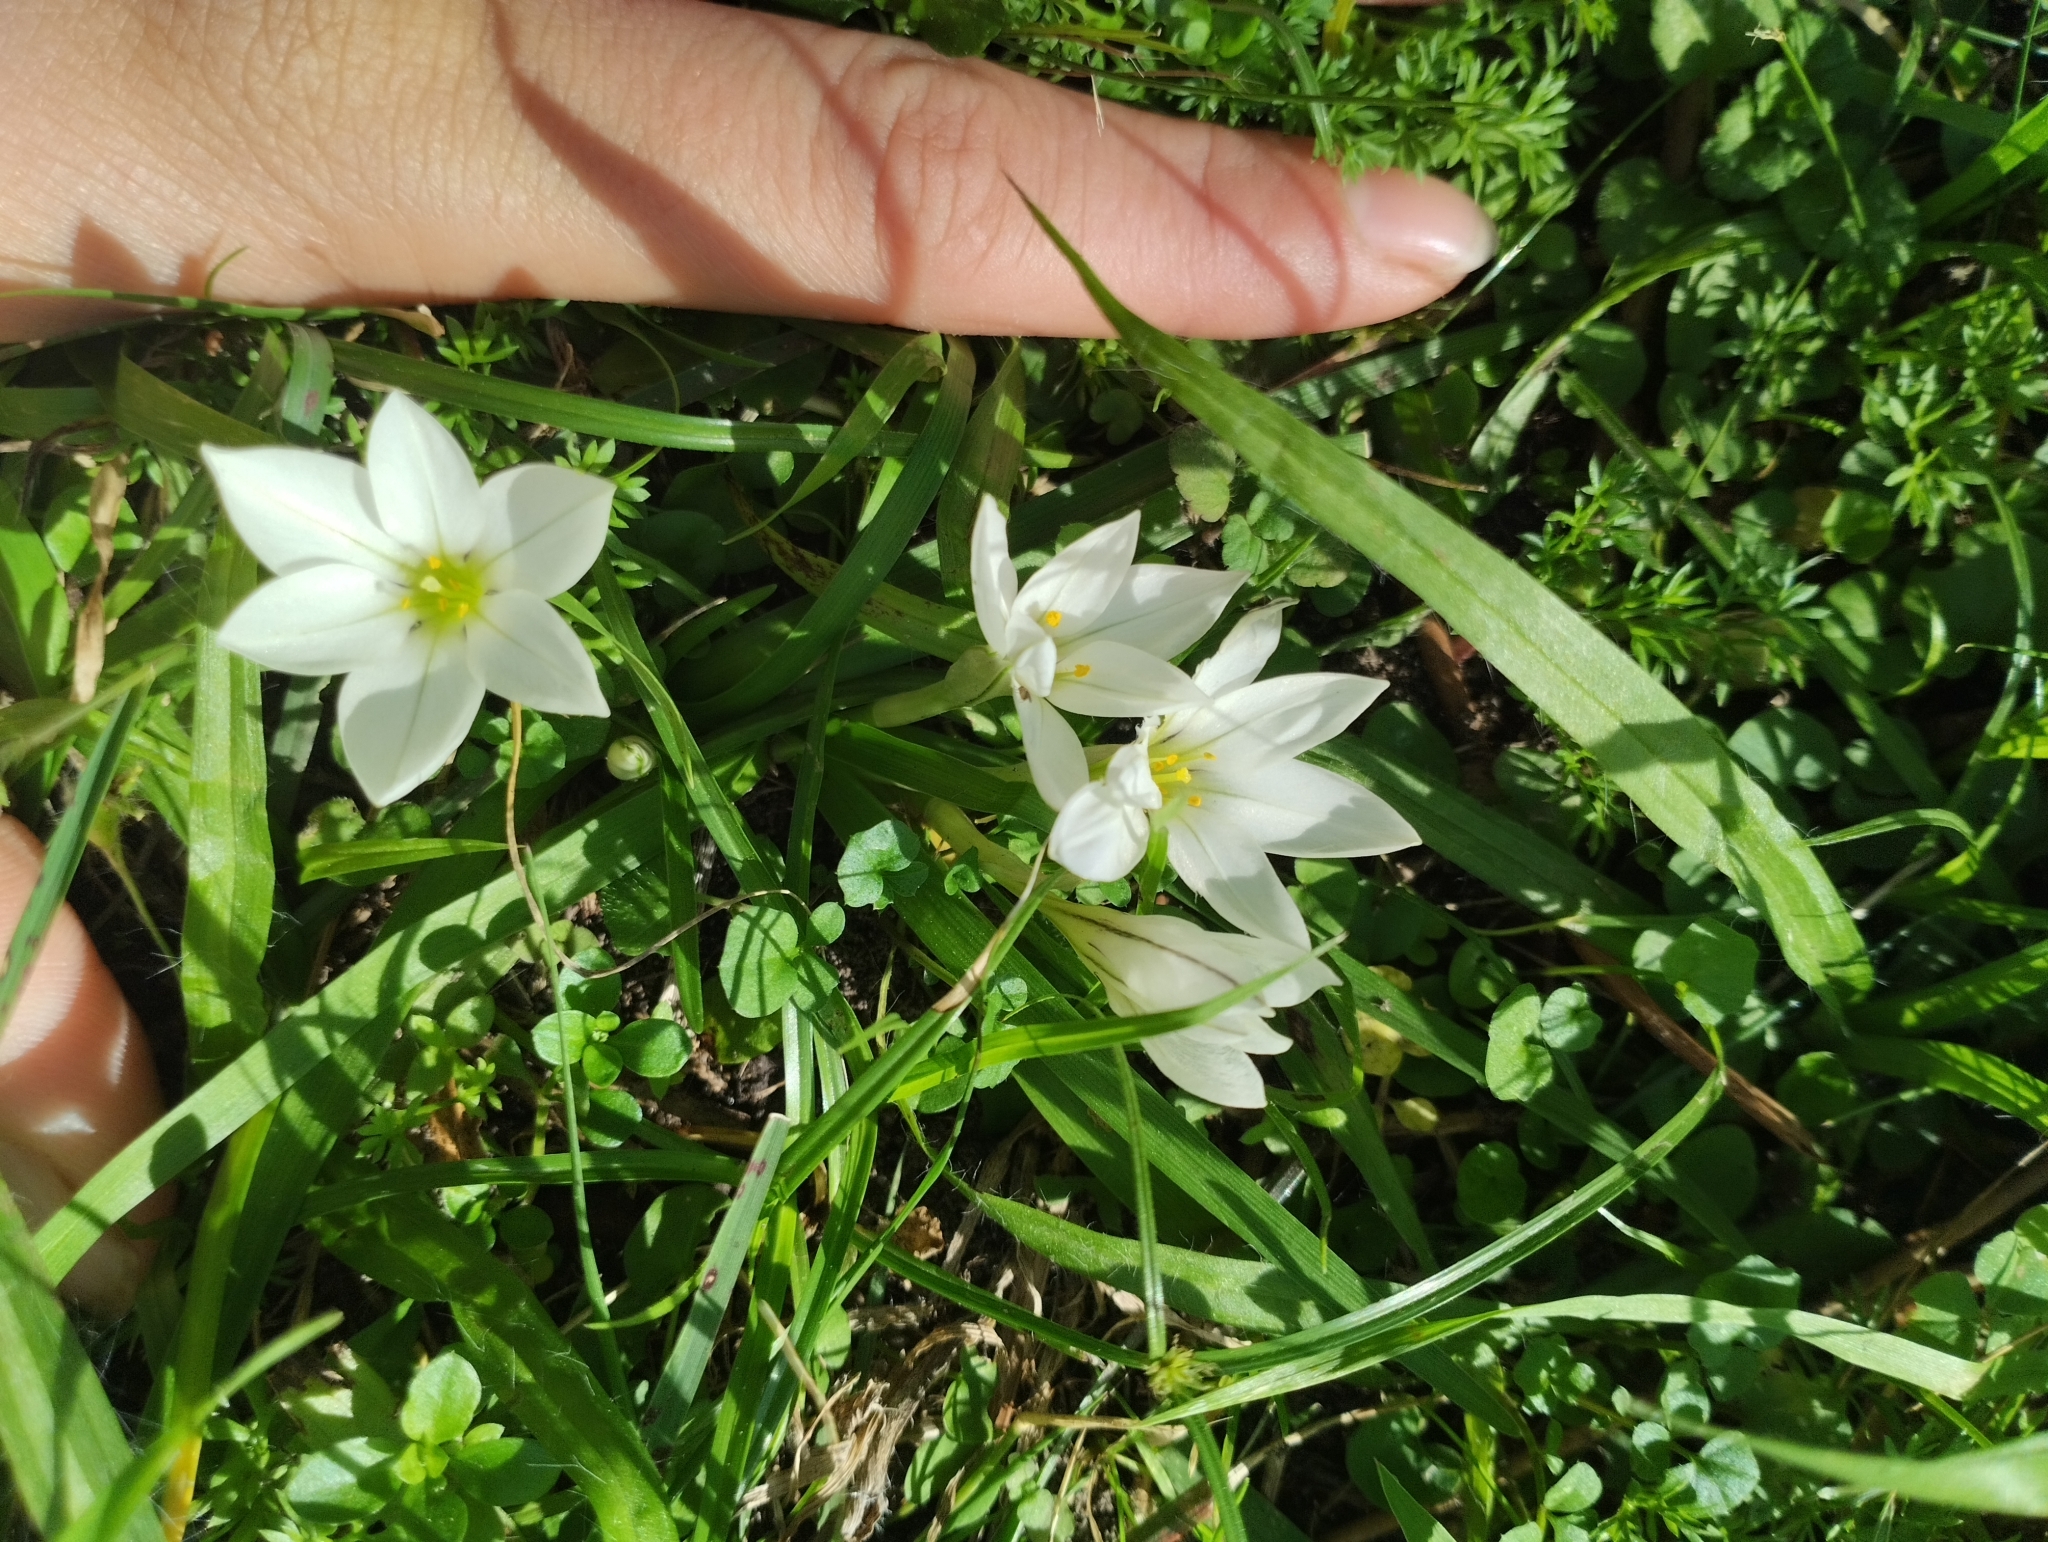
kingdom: Plantae
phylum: Tracheophyta
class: Liliopsida
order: Asparagales
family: Amaryllidaceae
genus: Ipheion
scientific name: Ipheion recurvifolium
